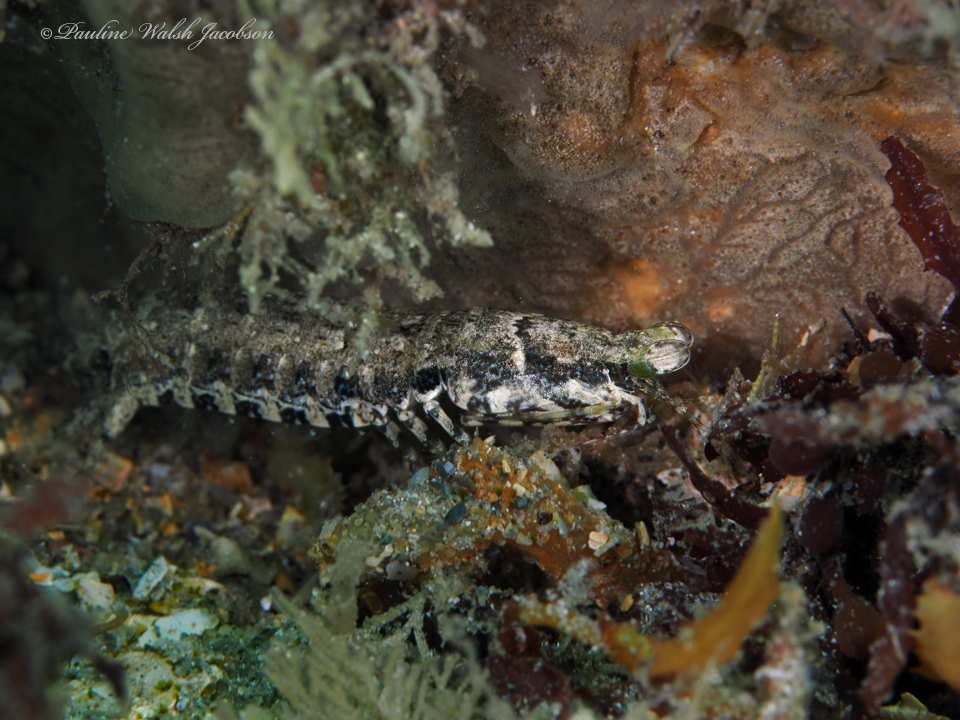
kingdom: Animalia
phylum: Arthropoda
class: Malacostraca
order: Stomatopoda
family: Pseudosquillidae
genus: Pseudosquilla
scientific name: Pseudosquilla ciliata
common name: Ciliated false squilla
